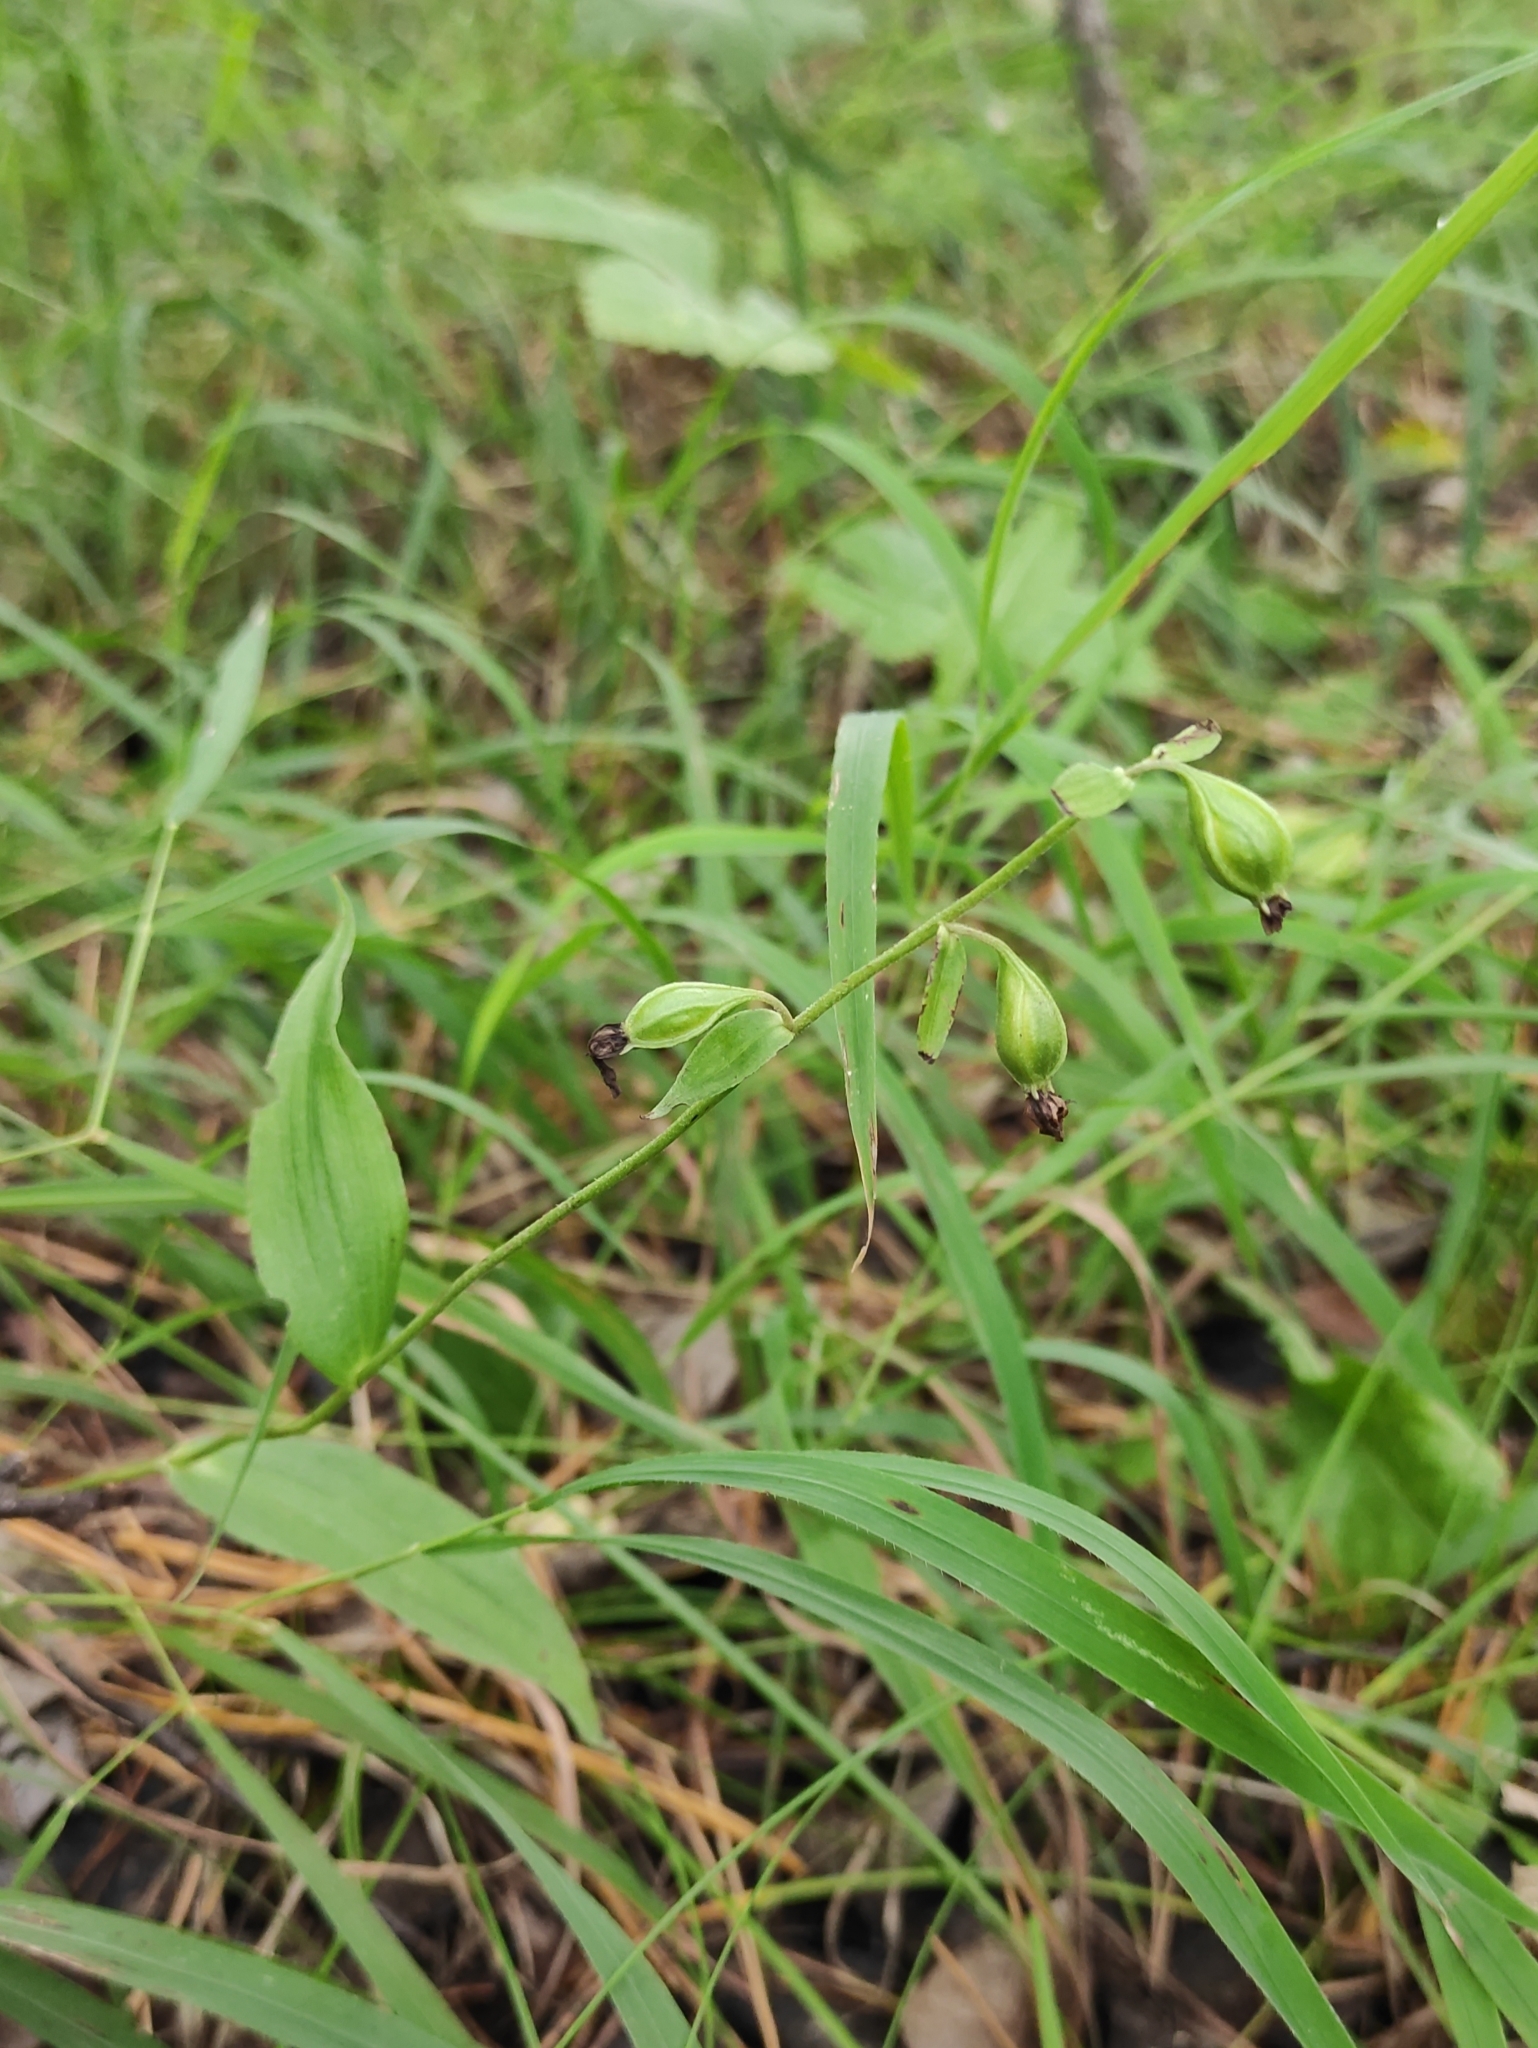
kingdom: Plantae
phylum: Tracheophyta
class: Liliopsida
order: Asparagales
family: Orchidaceae
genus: Epipactis
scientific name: Epipactis helleborine
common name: Broad-leaved helleborine
